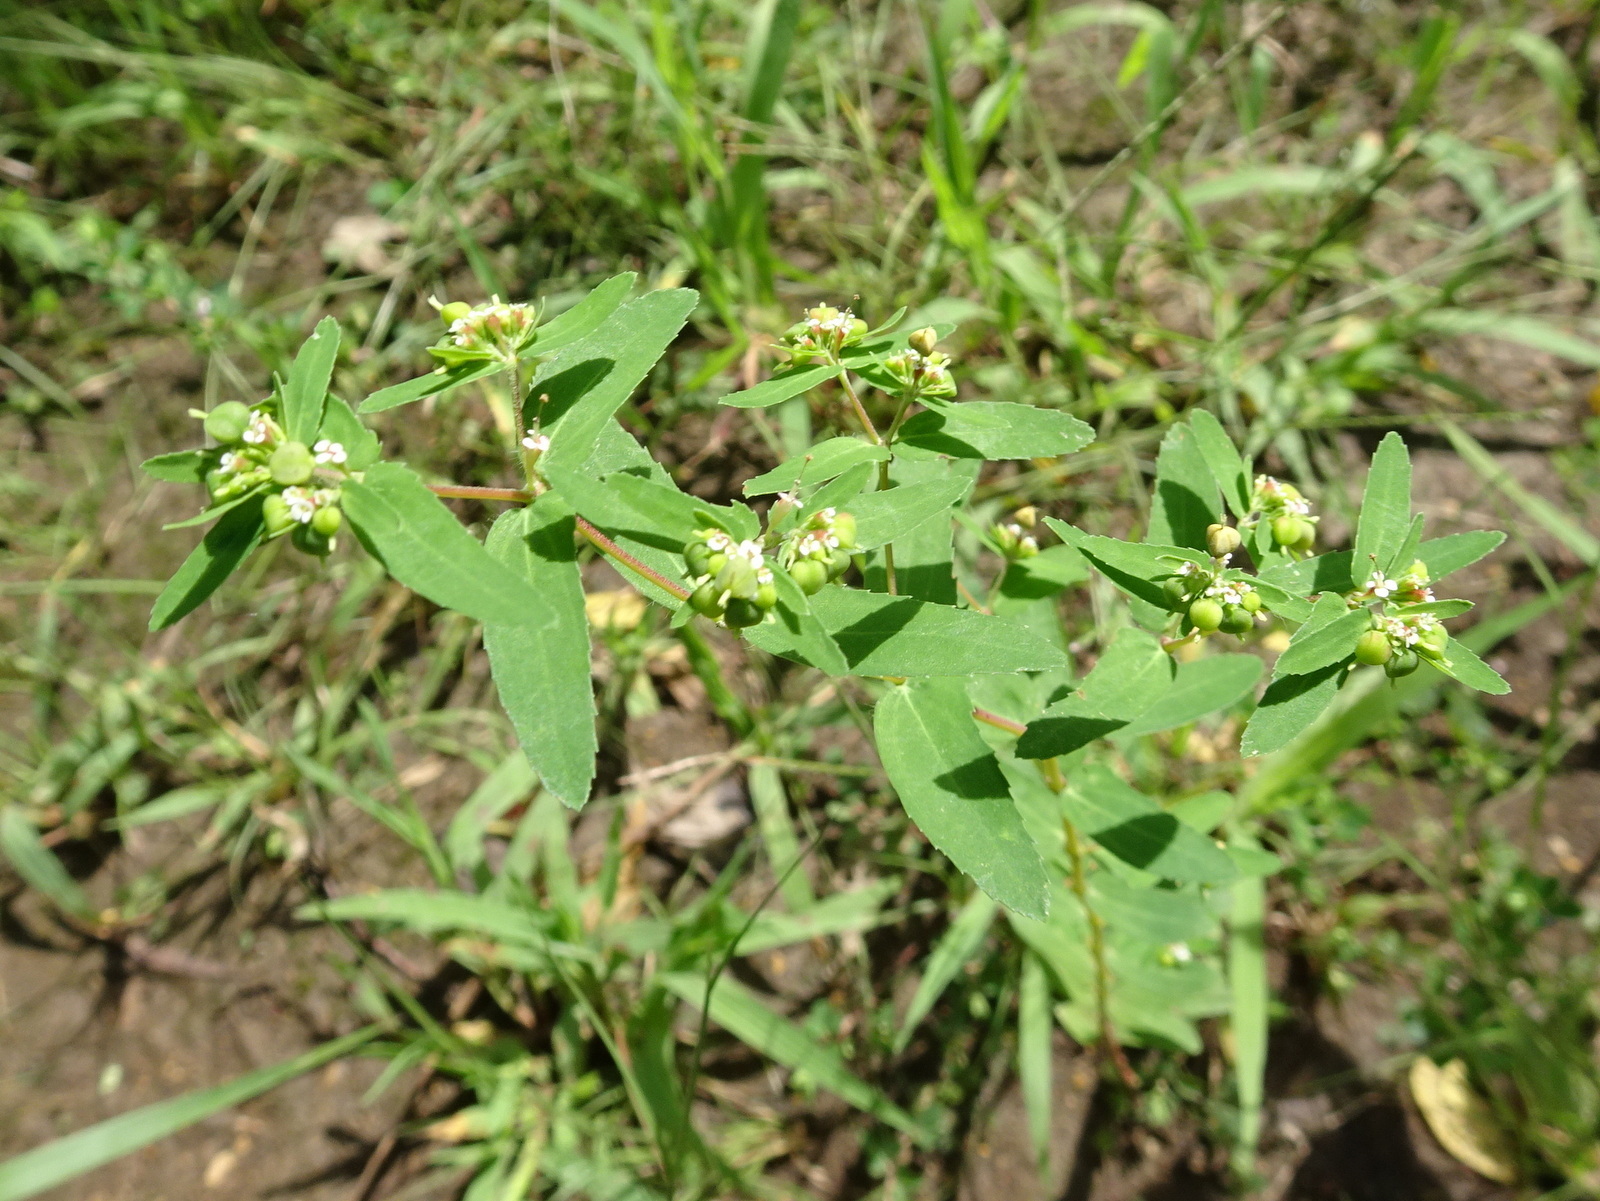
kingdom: Plantae
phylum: Tracheophyta
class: Magnoliopsida
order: Malpighiales
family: Euphorbiaceae
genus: Euphorbia
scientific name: Euphorbia nutans
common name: Eyebane
